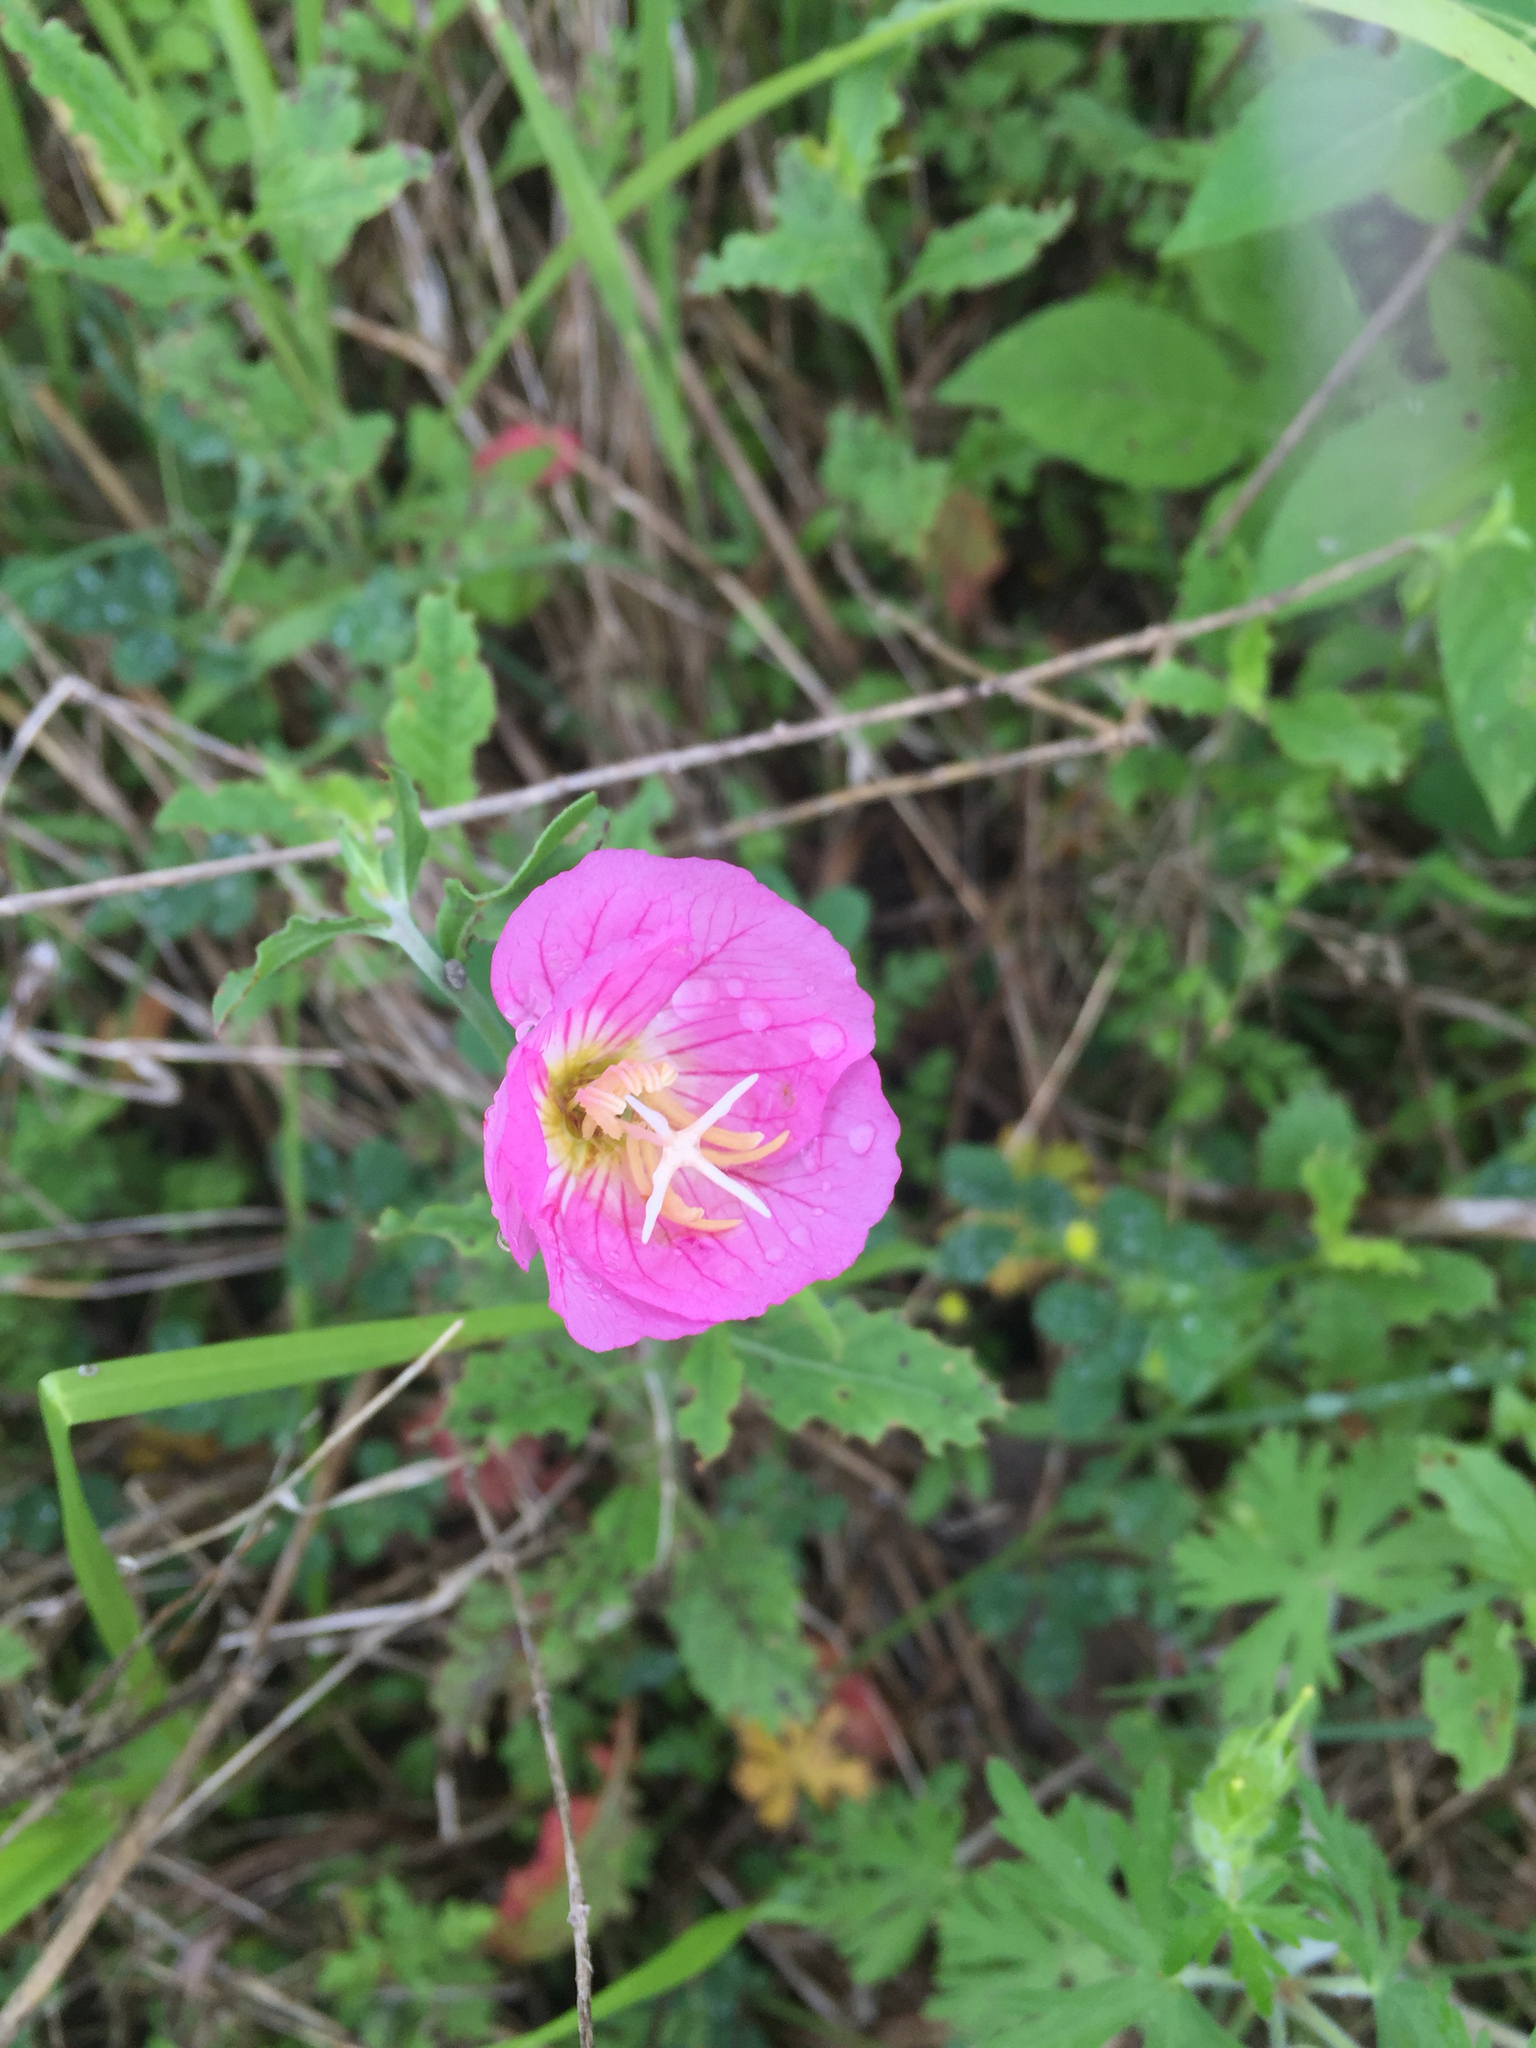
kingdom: Plantae
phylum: Tracheophyta
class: Magnoliopsida
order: Myrtales
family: Onagraceae
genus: Oenothera
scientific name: Oenothera speciosa
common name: White evening-primrose
